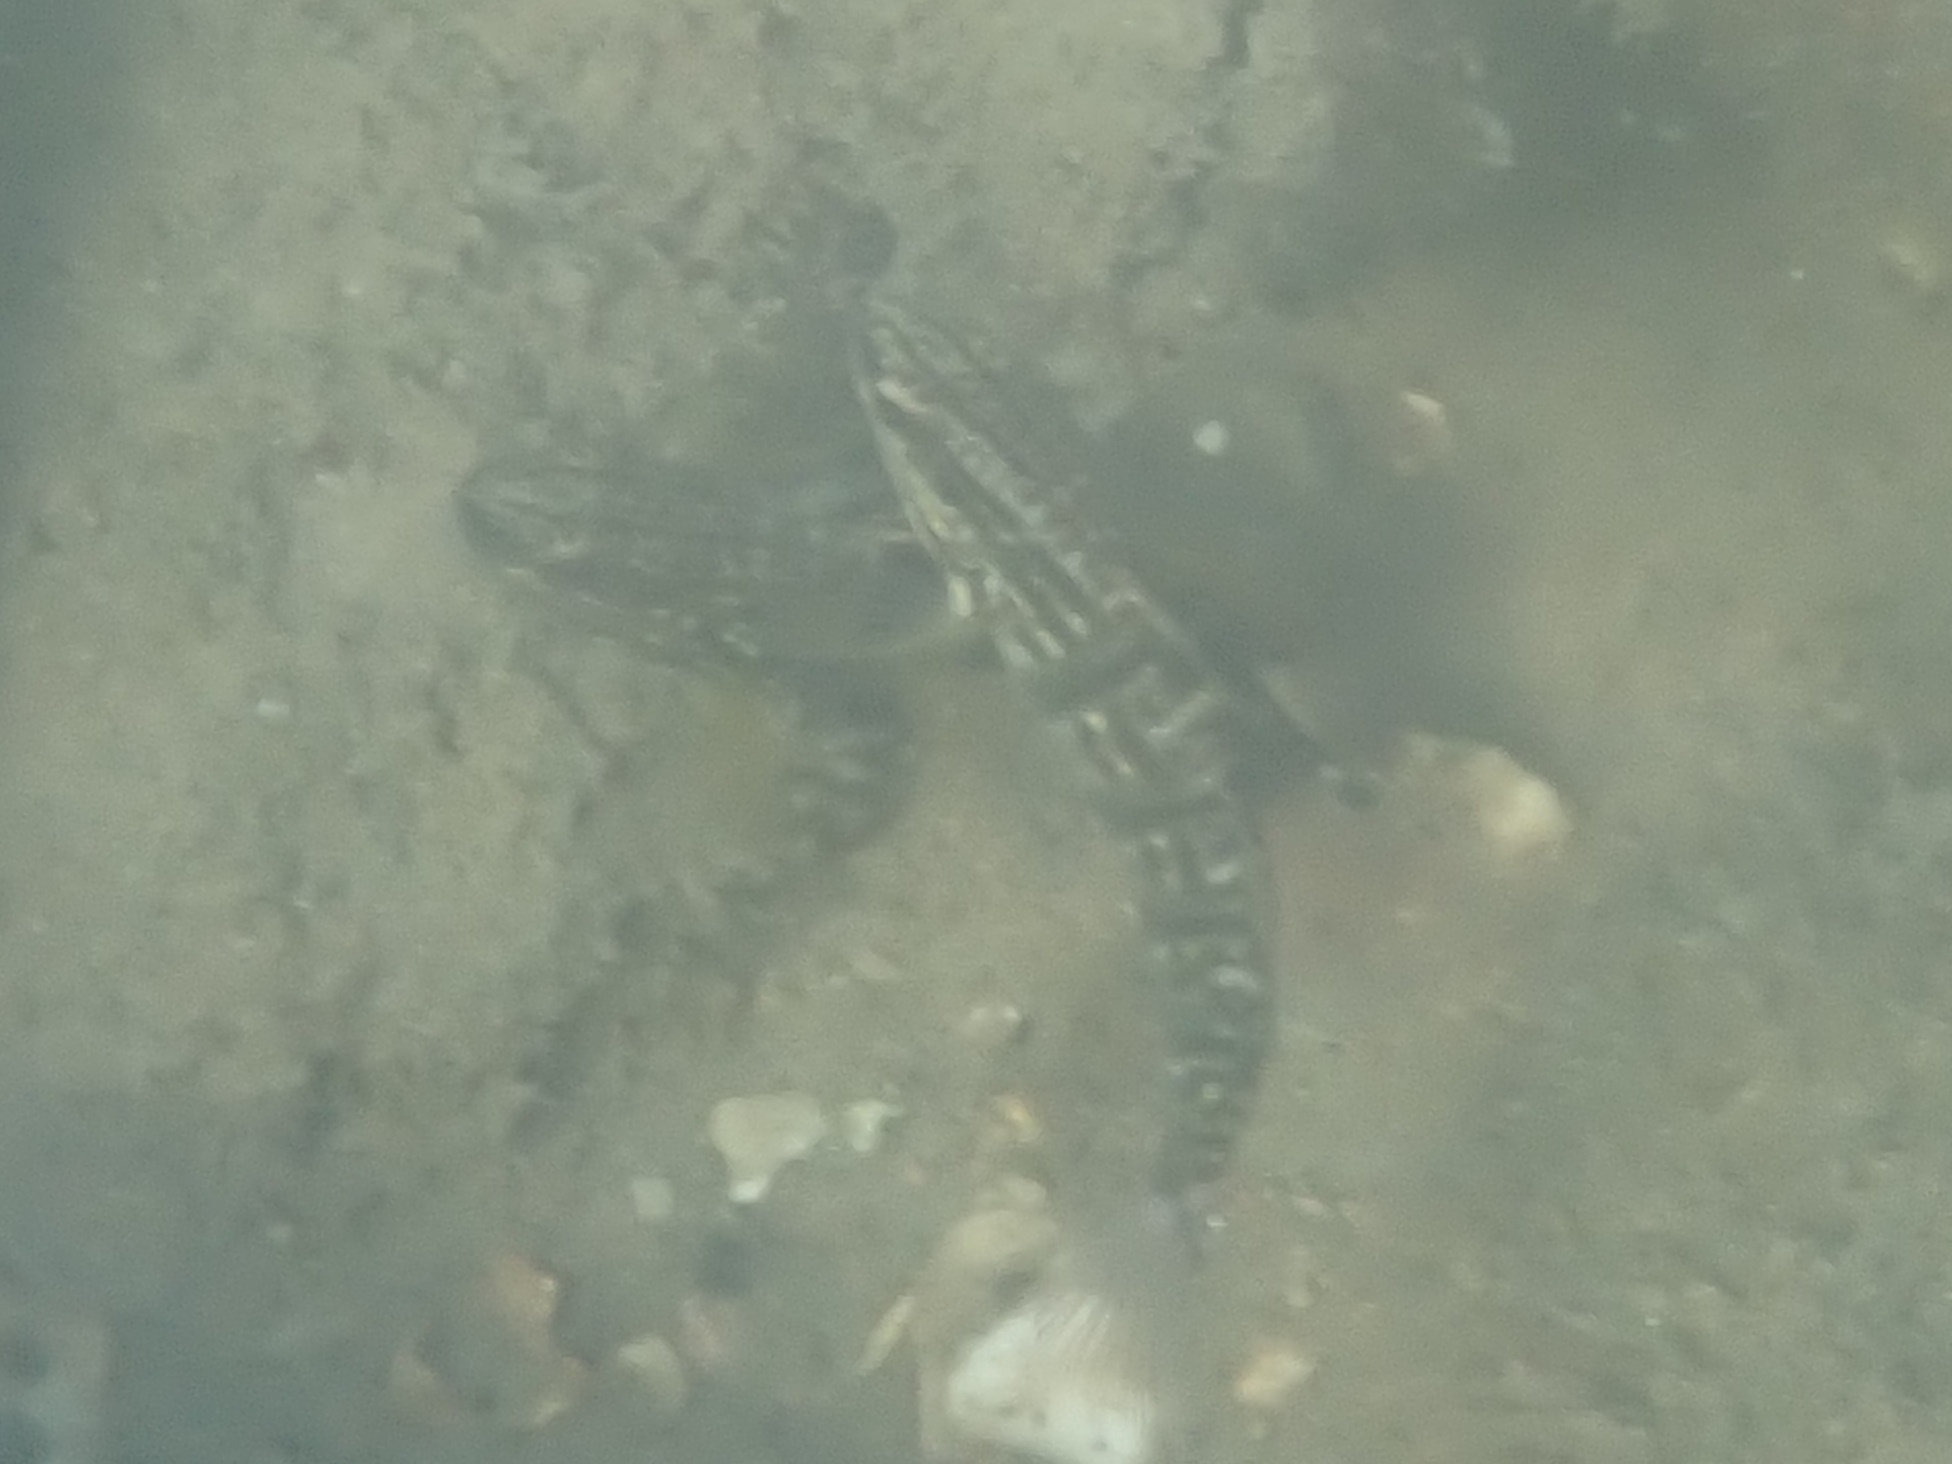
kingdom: Animalia
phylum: Chordata
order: Perciformes
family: Gobiidae
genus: Amblygobius
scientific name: Amblygobius phalaena
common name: Banded goby
